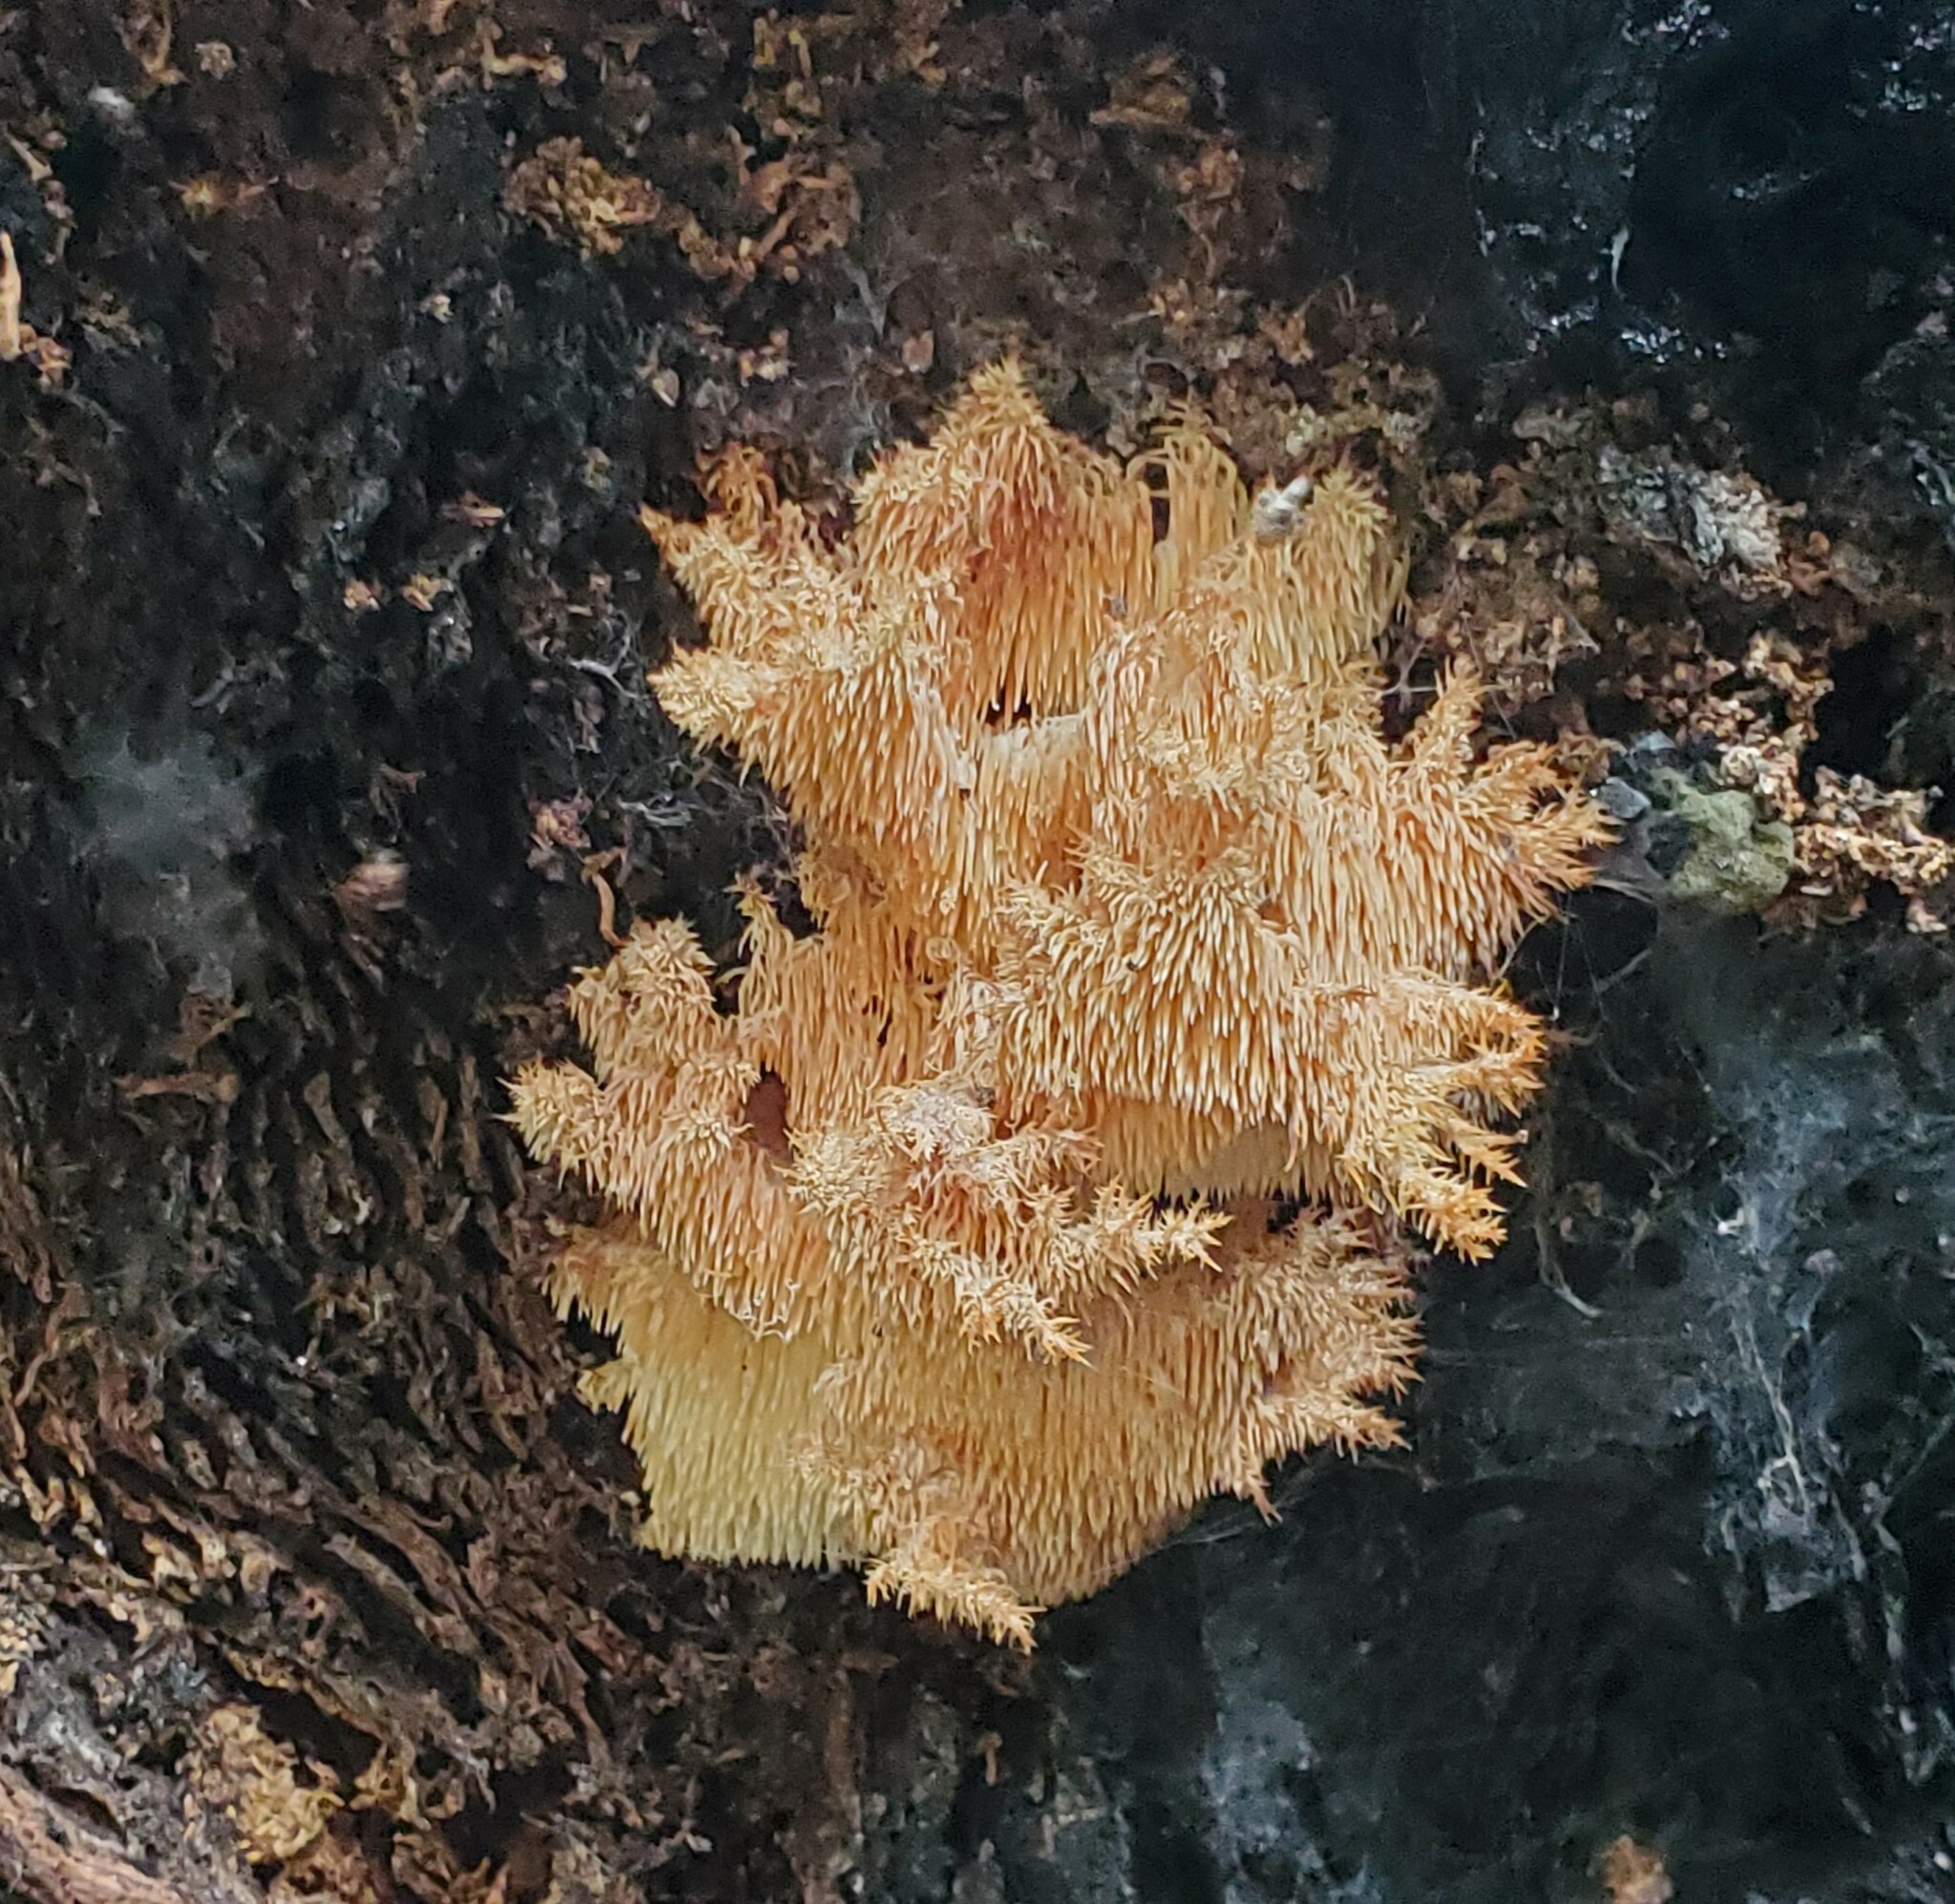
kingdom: Fungi
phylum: Basidiomycota
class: Agaricomycetes
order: Russulales
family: Hericiaceae
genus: Hericium
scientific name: Hericium coralloides
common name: Coral tooth
